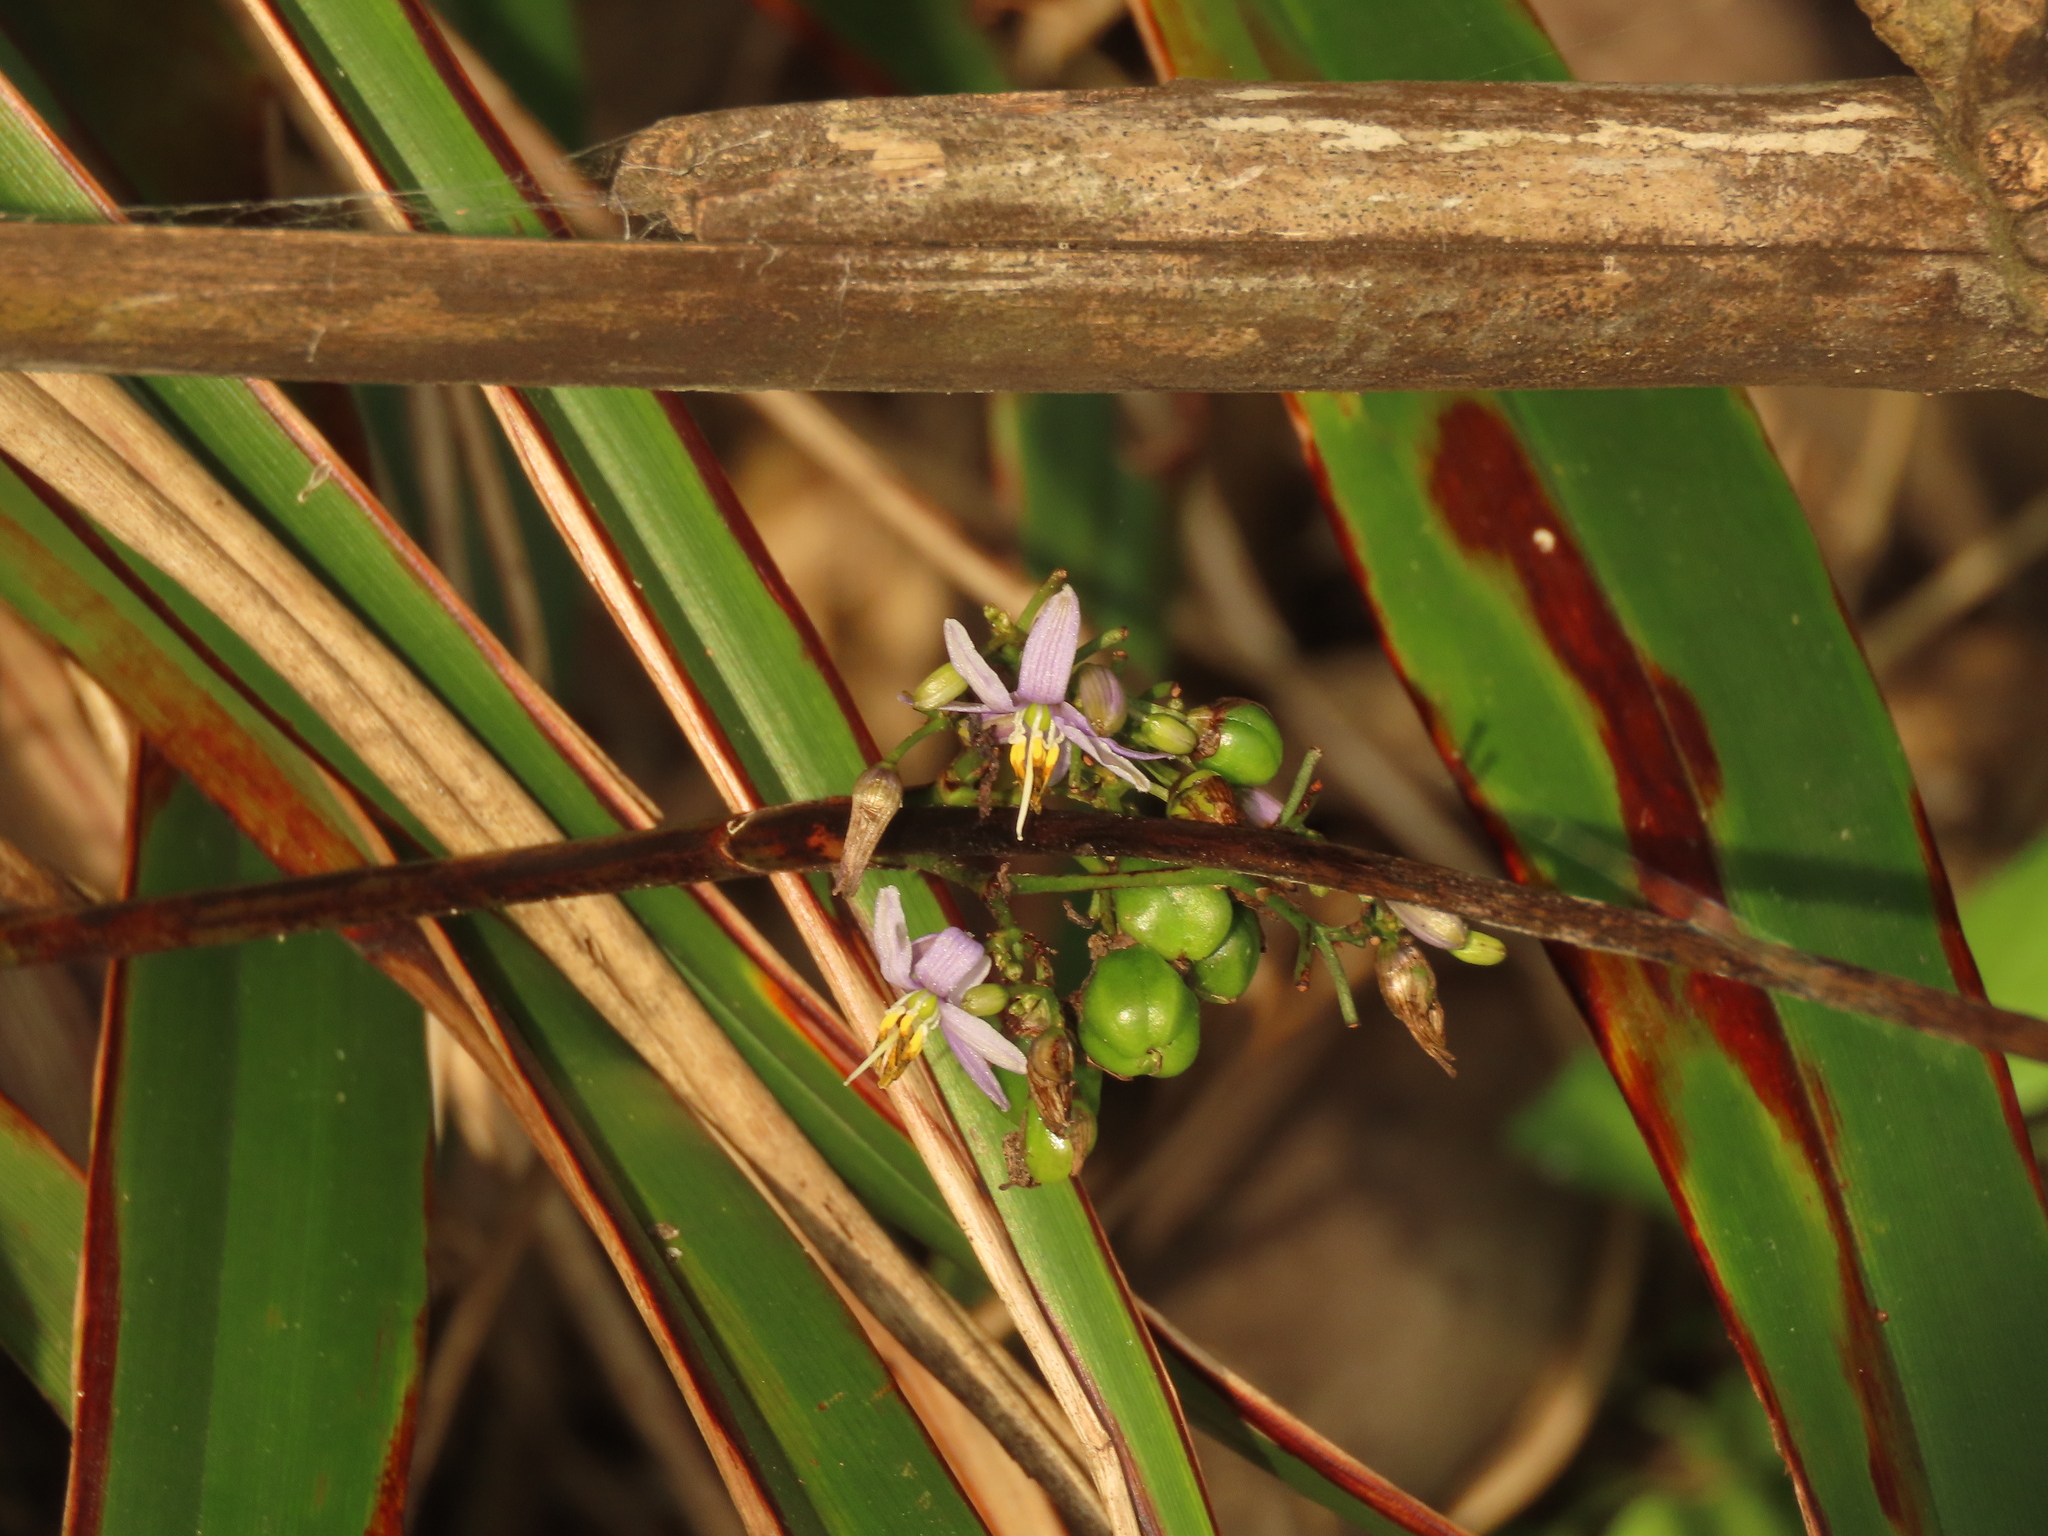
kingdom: Plantae
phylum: Tracheophyta
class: Liliopsida
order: Asparagales
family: Asphodelaceae
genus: Dianella
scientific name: Dianella ensifolia
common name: New zealand lilyplant
